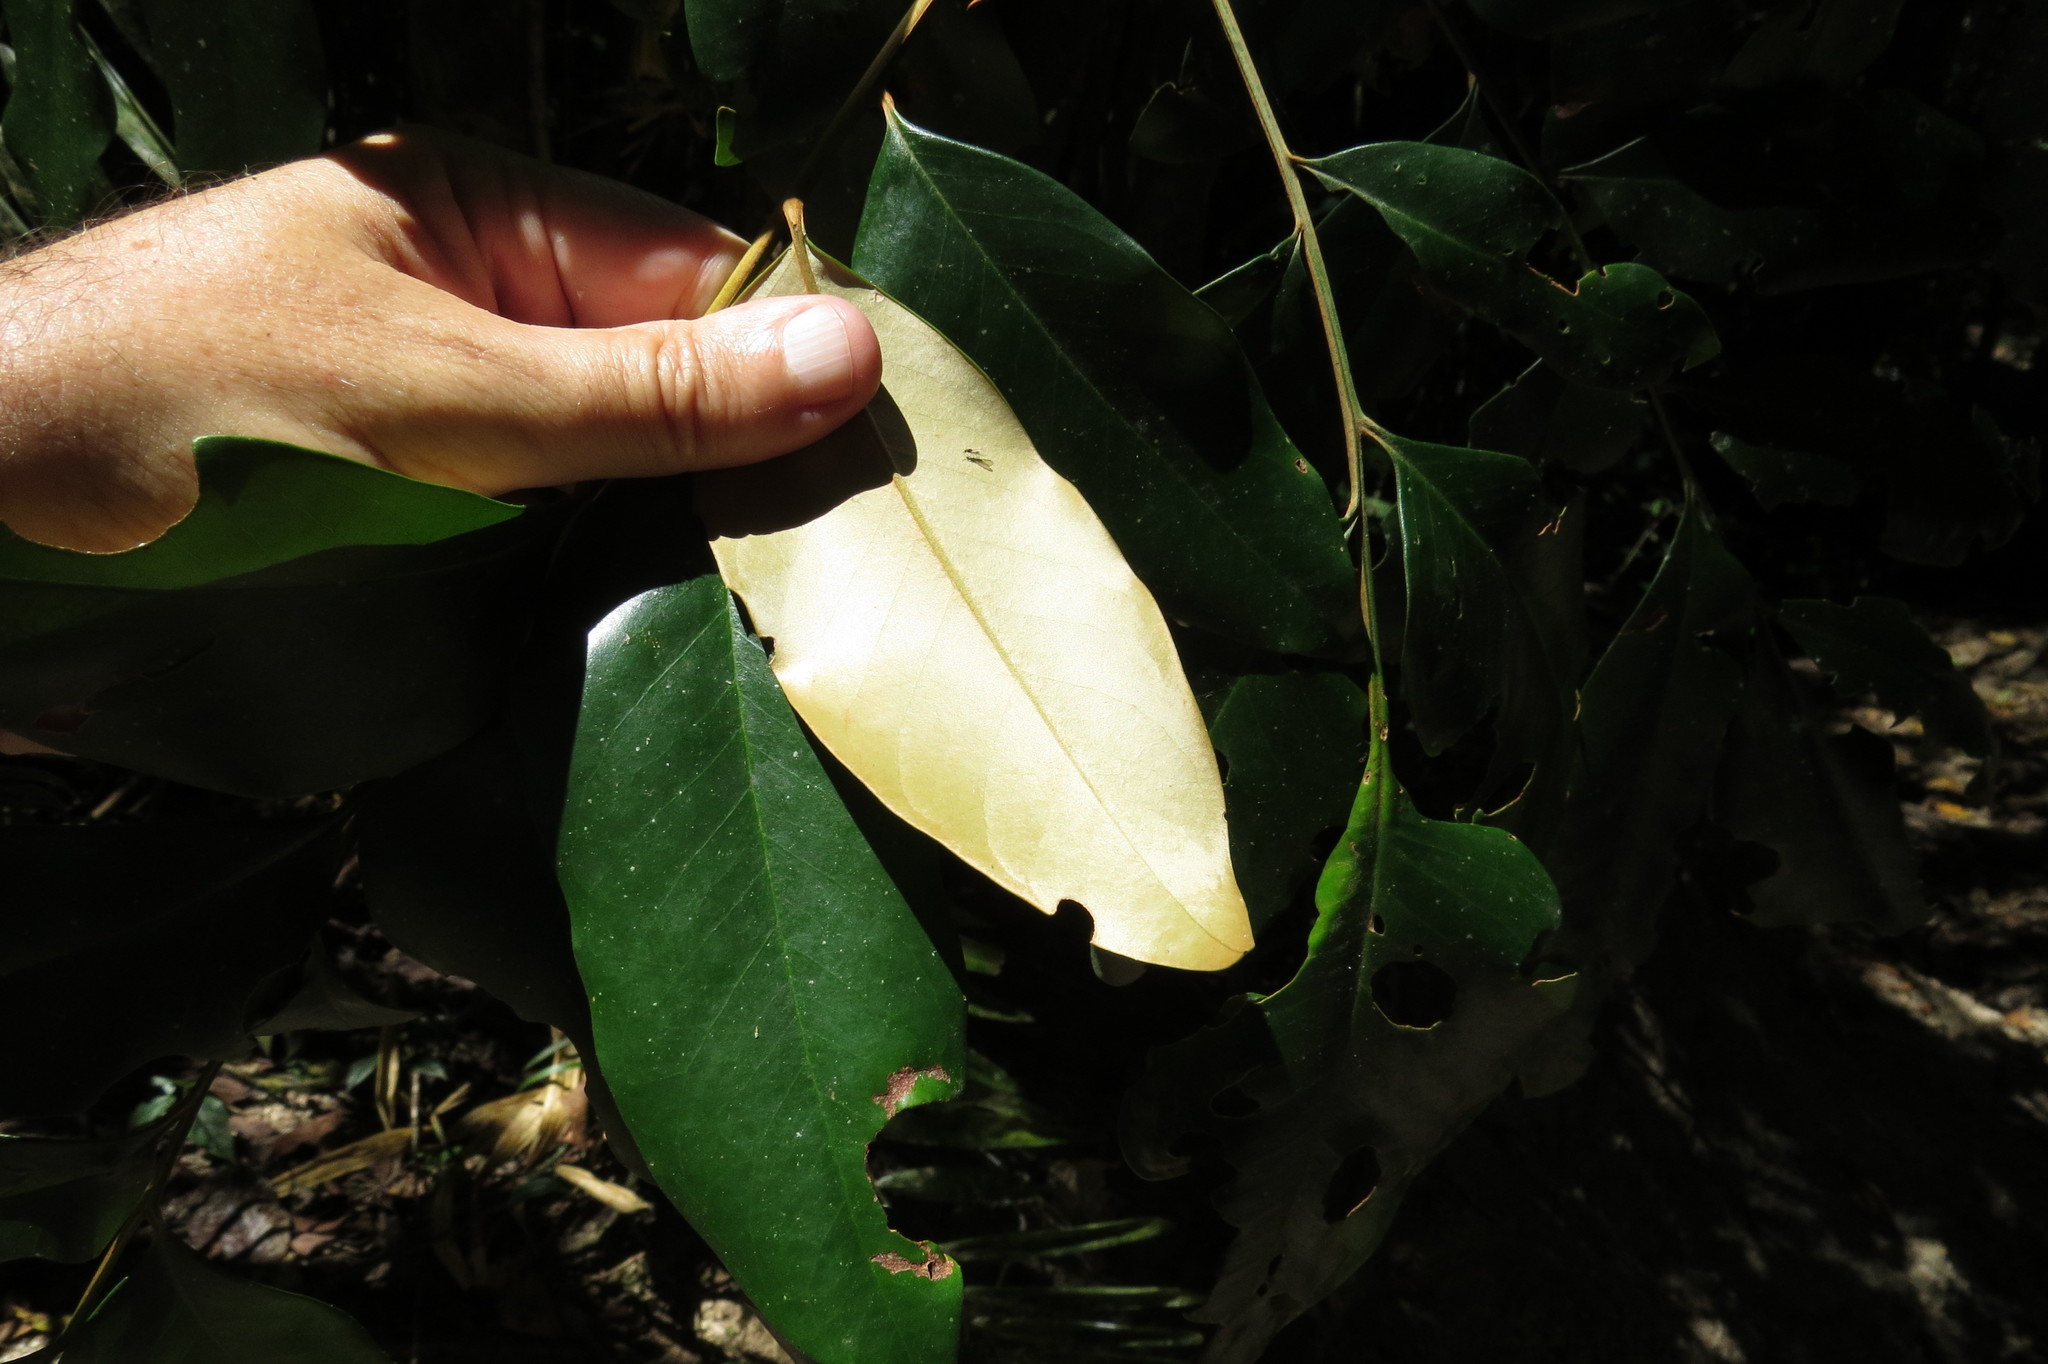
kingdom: Plantae
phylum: Tracheophyta
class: Magnoliopsida
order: Proteales
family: Proteaceae
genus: Opisthiolepis
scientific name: Opisthiolepis heterophylla
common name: Blush silky oak
